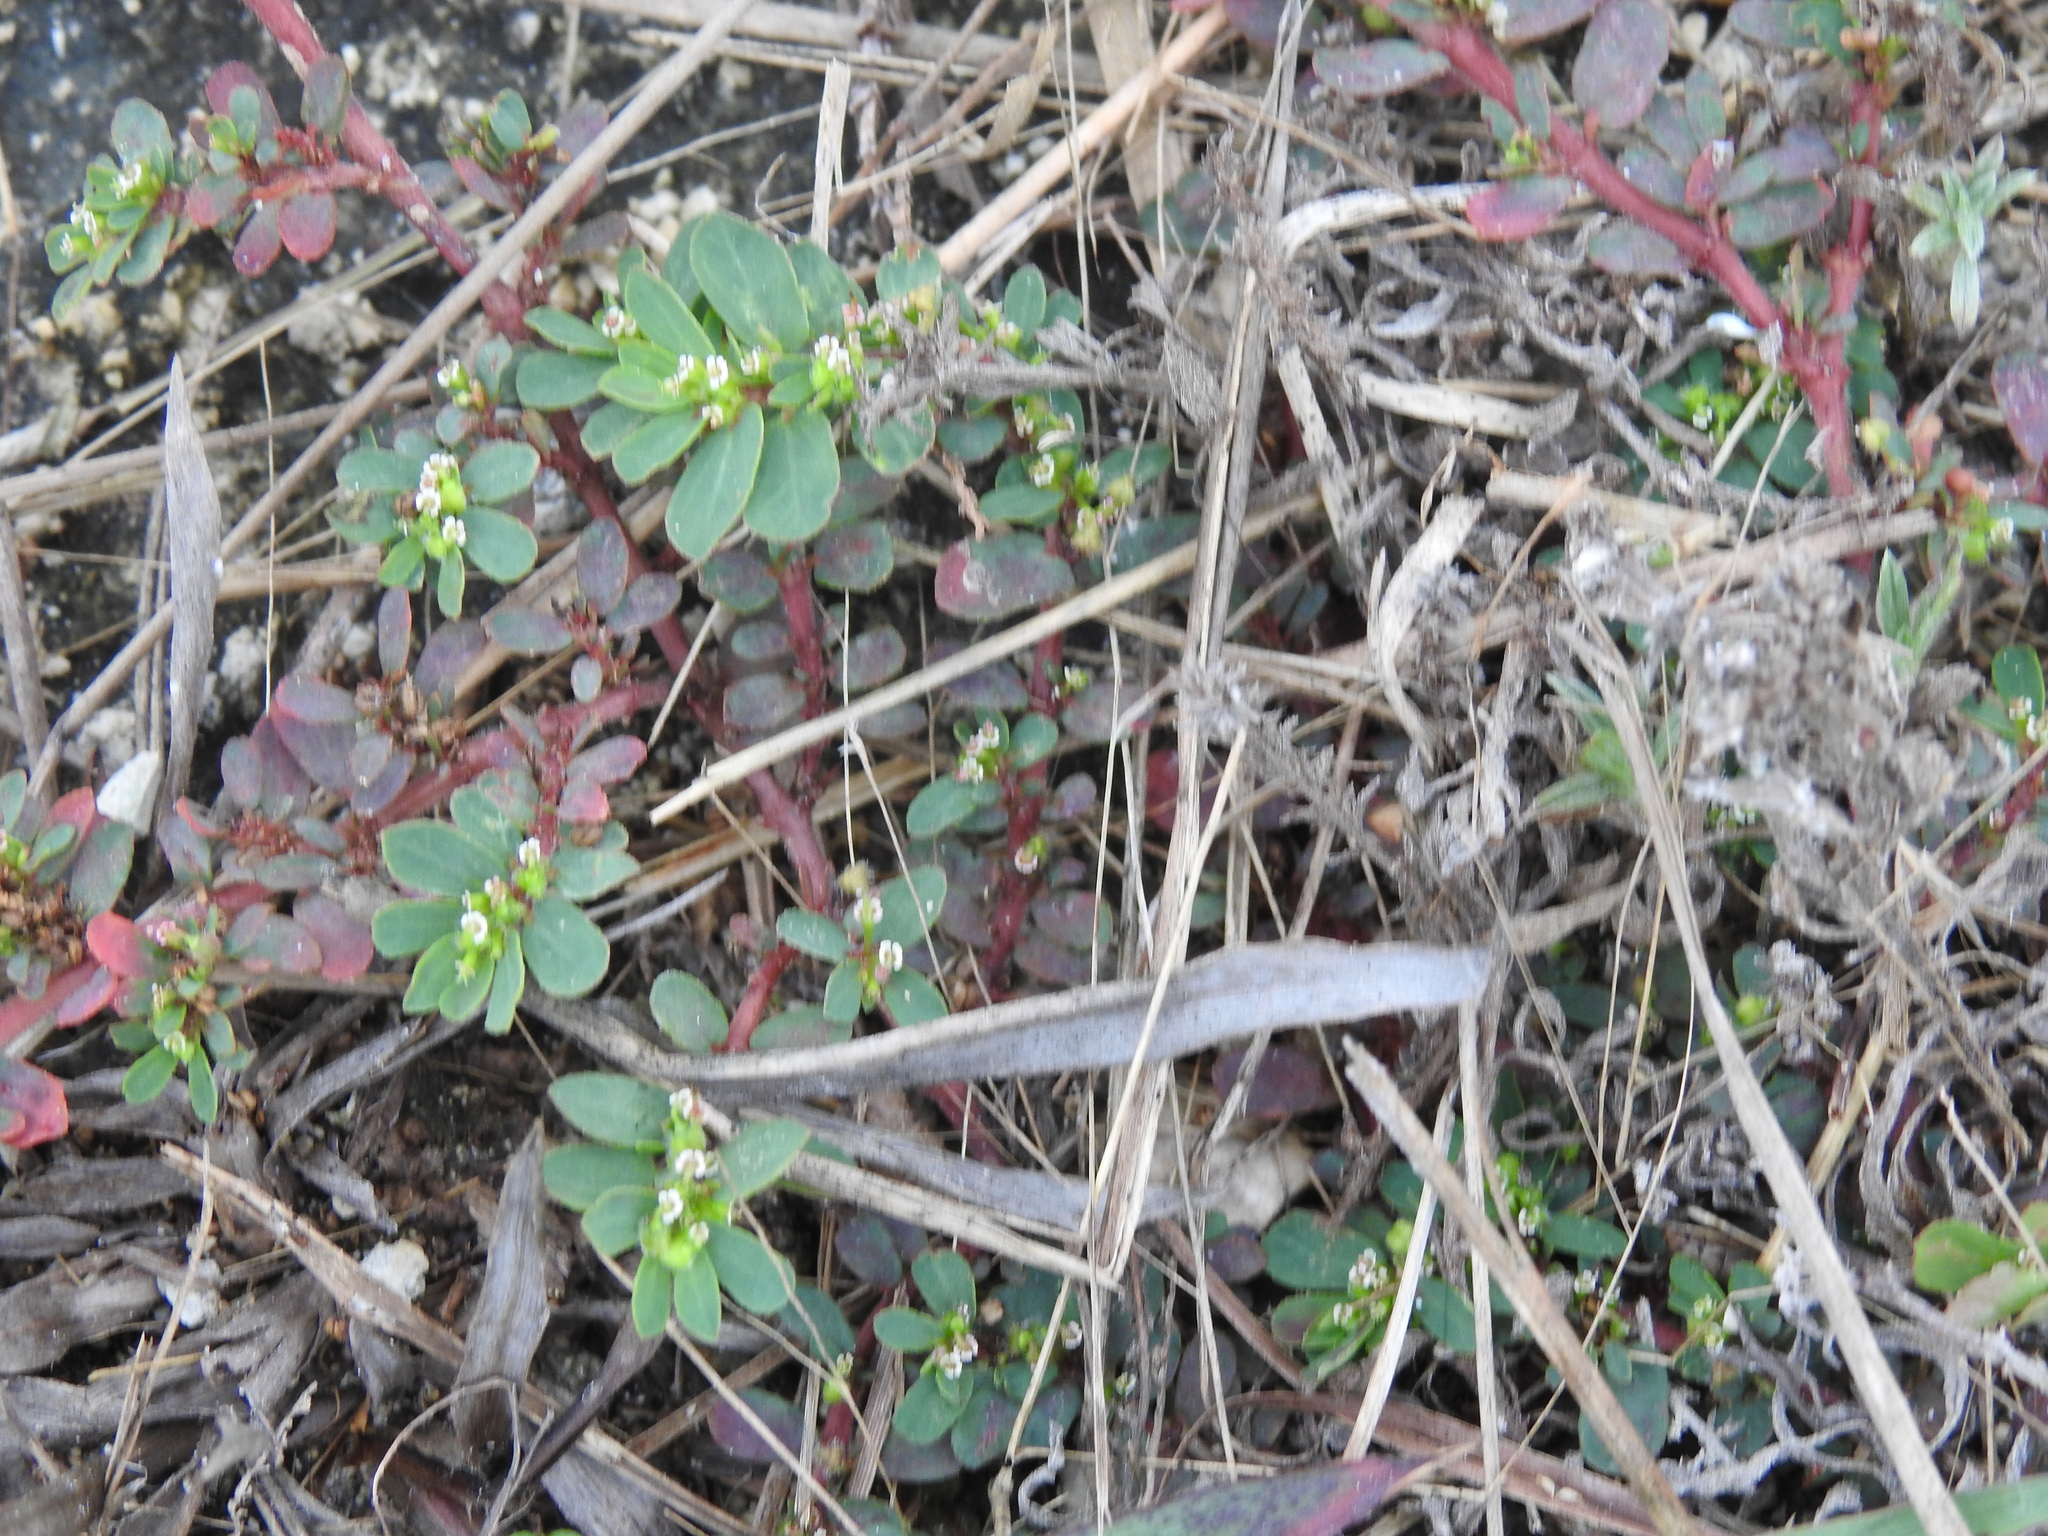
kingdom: Plantae
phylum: Tracheophyta
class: Magnoliopsida
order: Malpighiales
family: Euphorbiaceae
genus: Euphorbia
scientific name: Euphorbia mendezii
